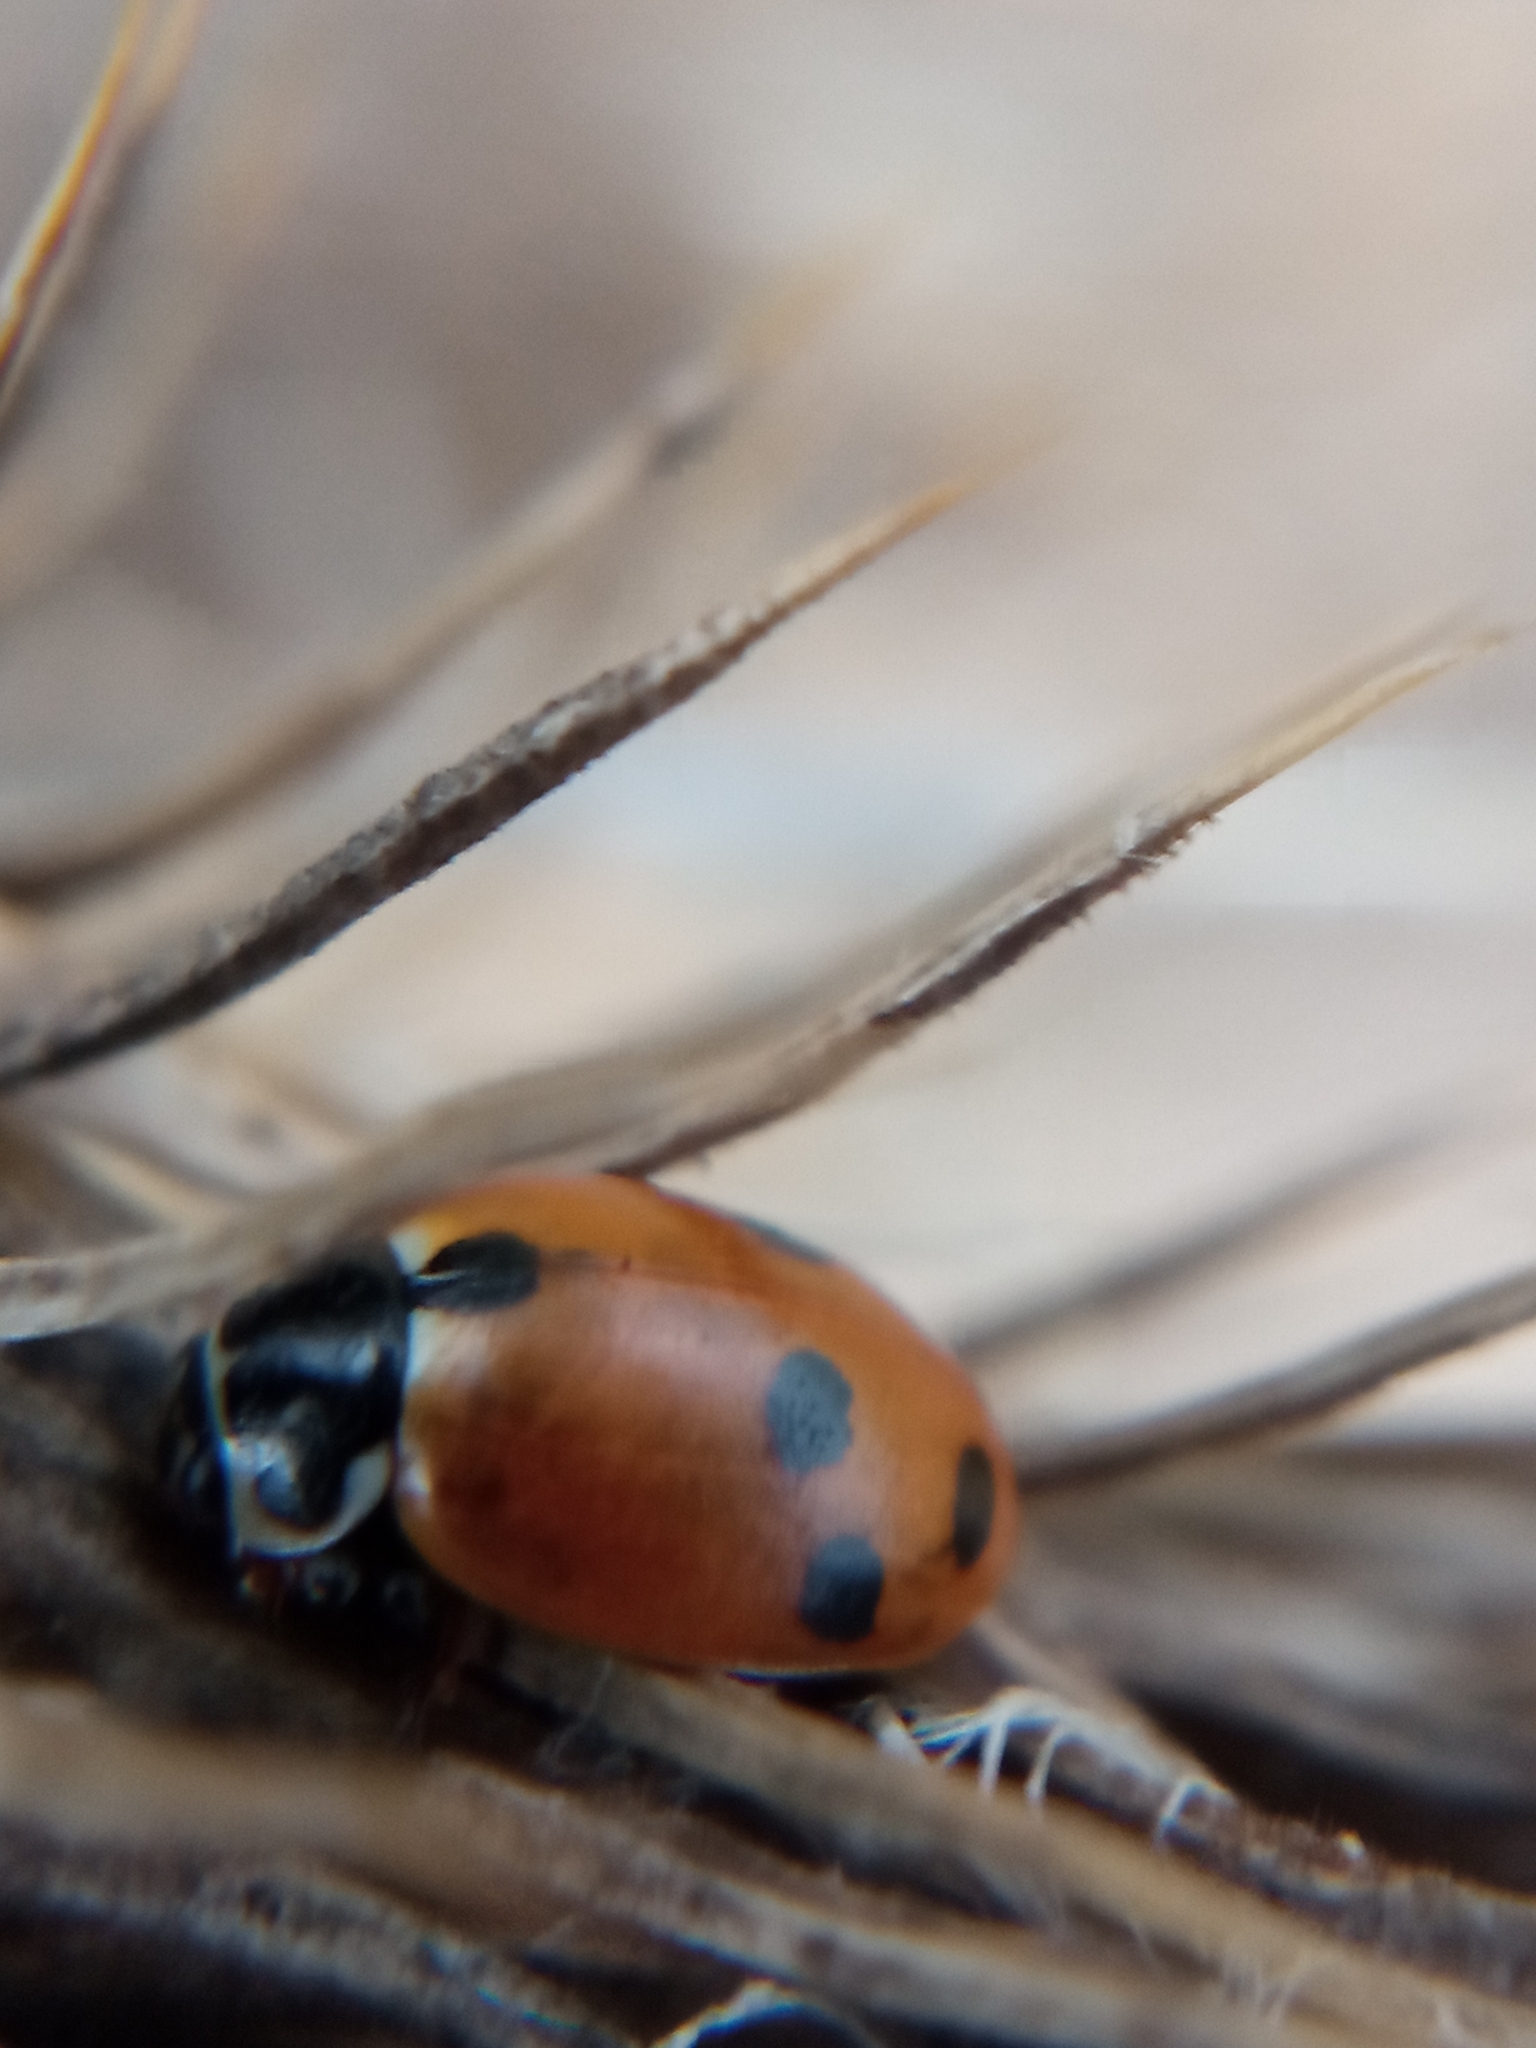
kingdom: Animalia
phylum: Arthropoda
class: Insecta
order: Coleoptera
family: Coccinellidae
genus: Hippodamia
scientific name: Hippodamia variegata
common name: Ladybird beetle
